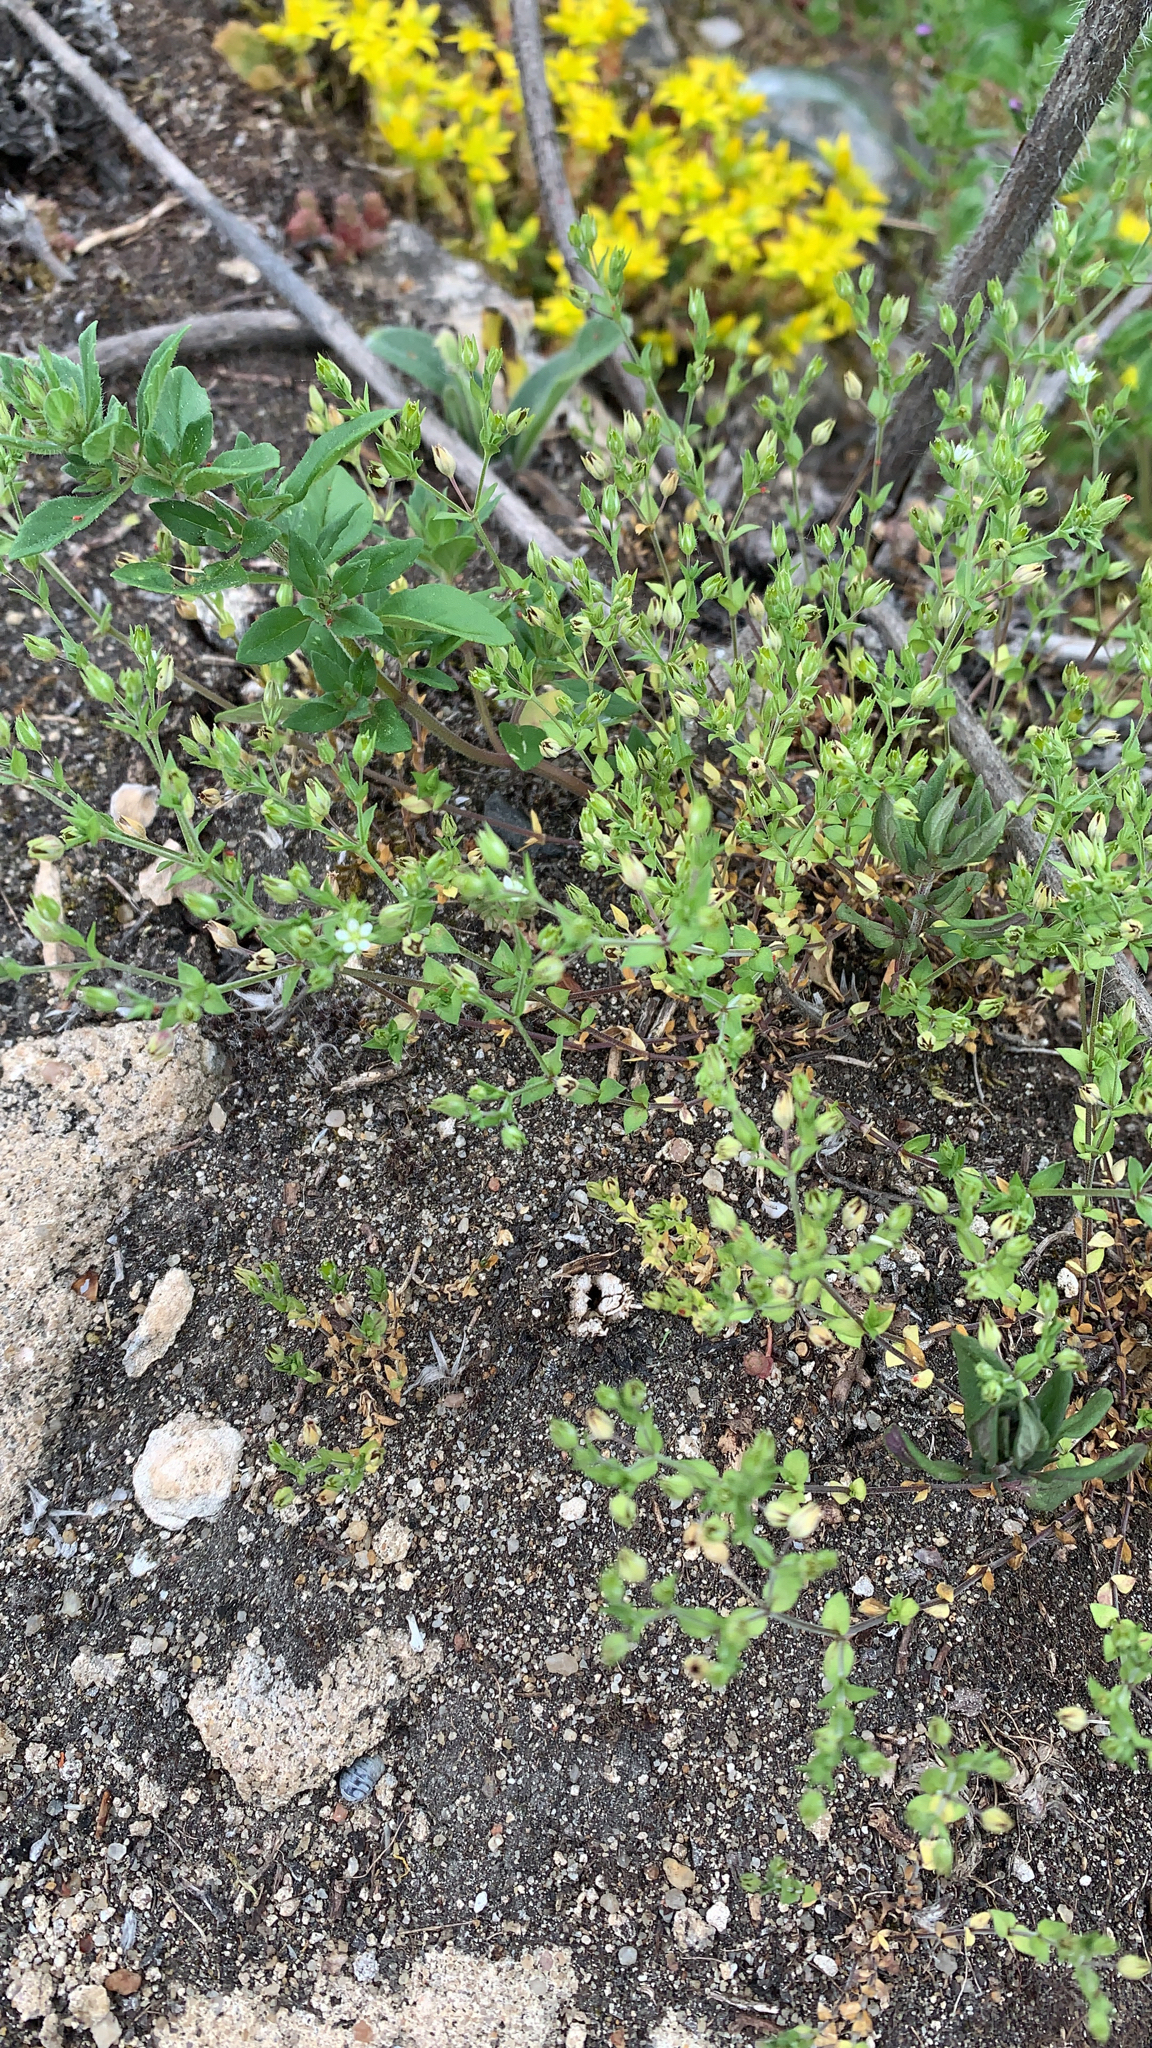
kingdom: Plantae
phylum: Tracheophyta
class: Magnoliopsida
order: Caryophyllales
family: Caryophyllaceae
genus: Arenaria
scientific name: Arenaria serpyllifolia
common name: Thyme-leaved sandwort
